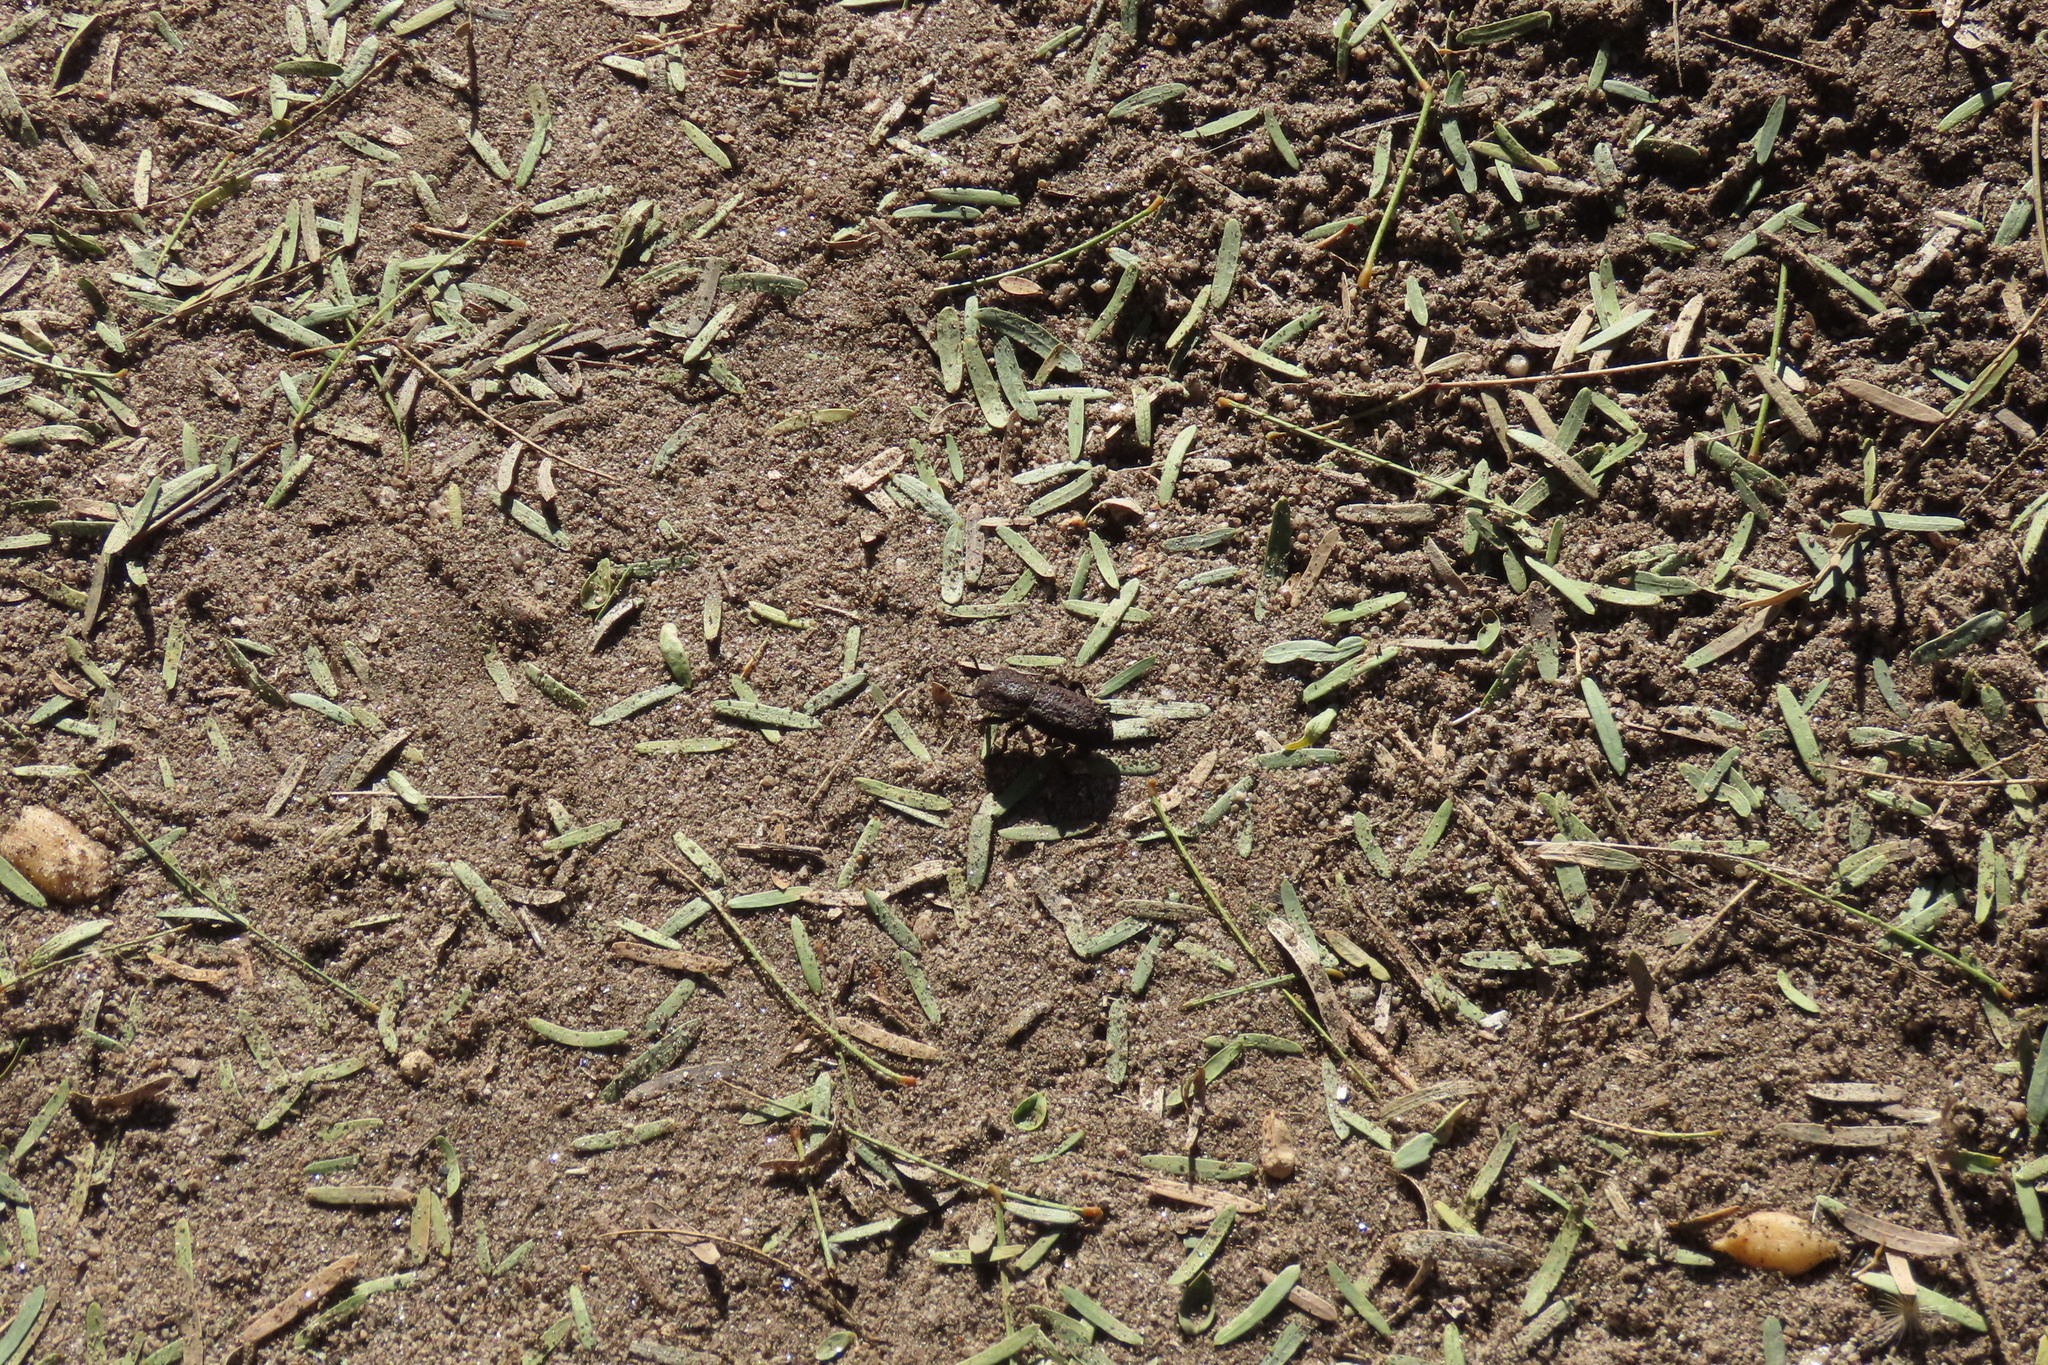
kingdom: Animalia
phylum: Arthropoda
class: Insecta
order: Coleoptera
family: Zopheridae
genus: Phloeodes
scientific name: Phloeodes diabolicus
